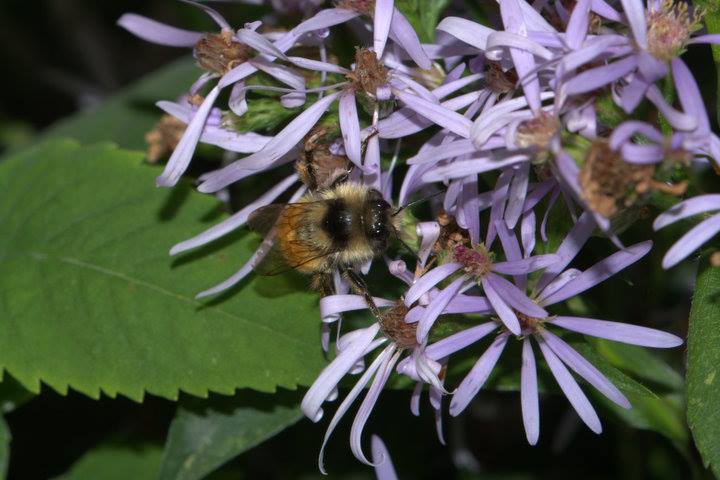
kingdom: Animalia
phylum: Arthropoda
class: Insecta
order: Hymenoptera
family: Apidae
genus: Bombus
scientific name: Bombus ternarius
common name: Tri-colored bumble bee
